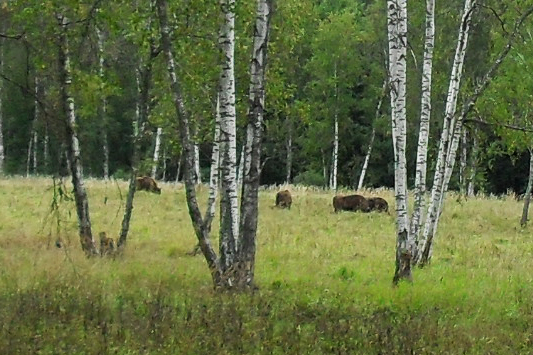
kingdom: Animalia
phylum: Chordata
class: Mammalia
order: Artiodactyla
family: Bovidae
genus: Bison
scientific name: Bison bonasus
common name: European bison
